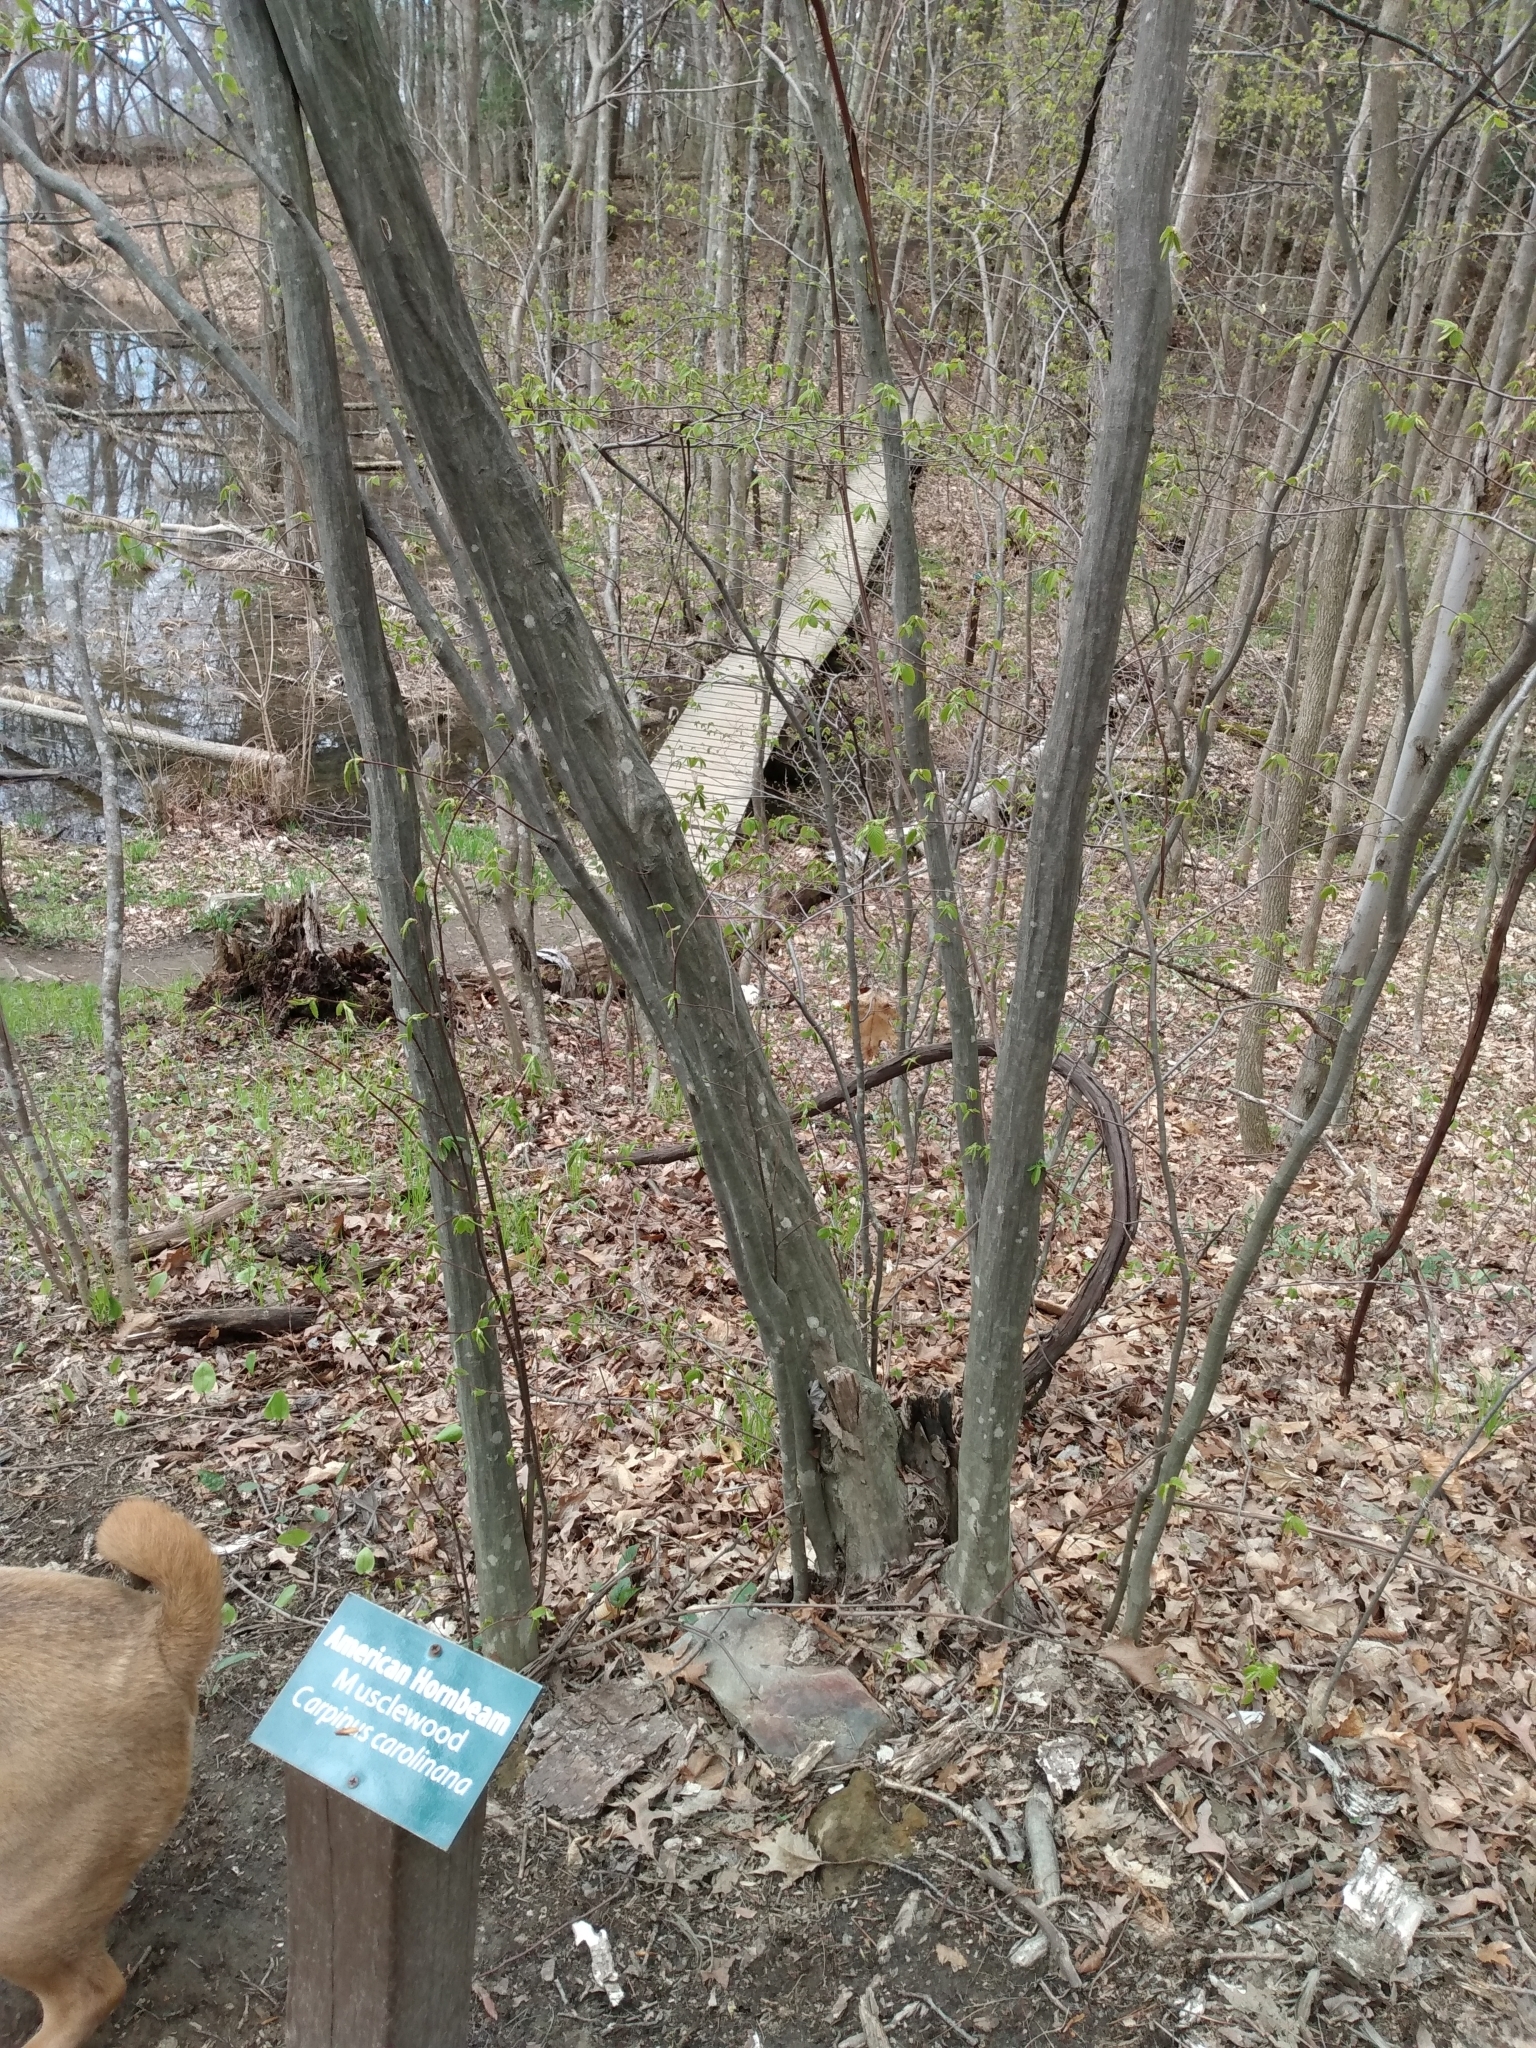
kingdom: Plantae
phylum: Tracheophyta
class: Magnoliopsida
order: Fagales
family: Betulaceae
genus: Carpinus
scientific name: Carpinus caroliniana
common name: American hornbeam
